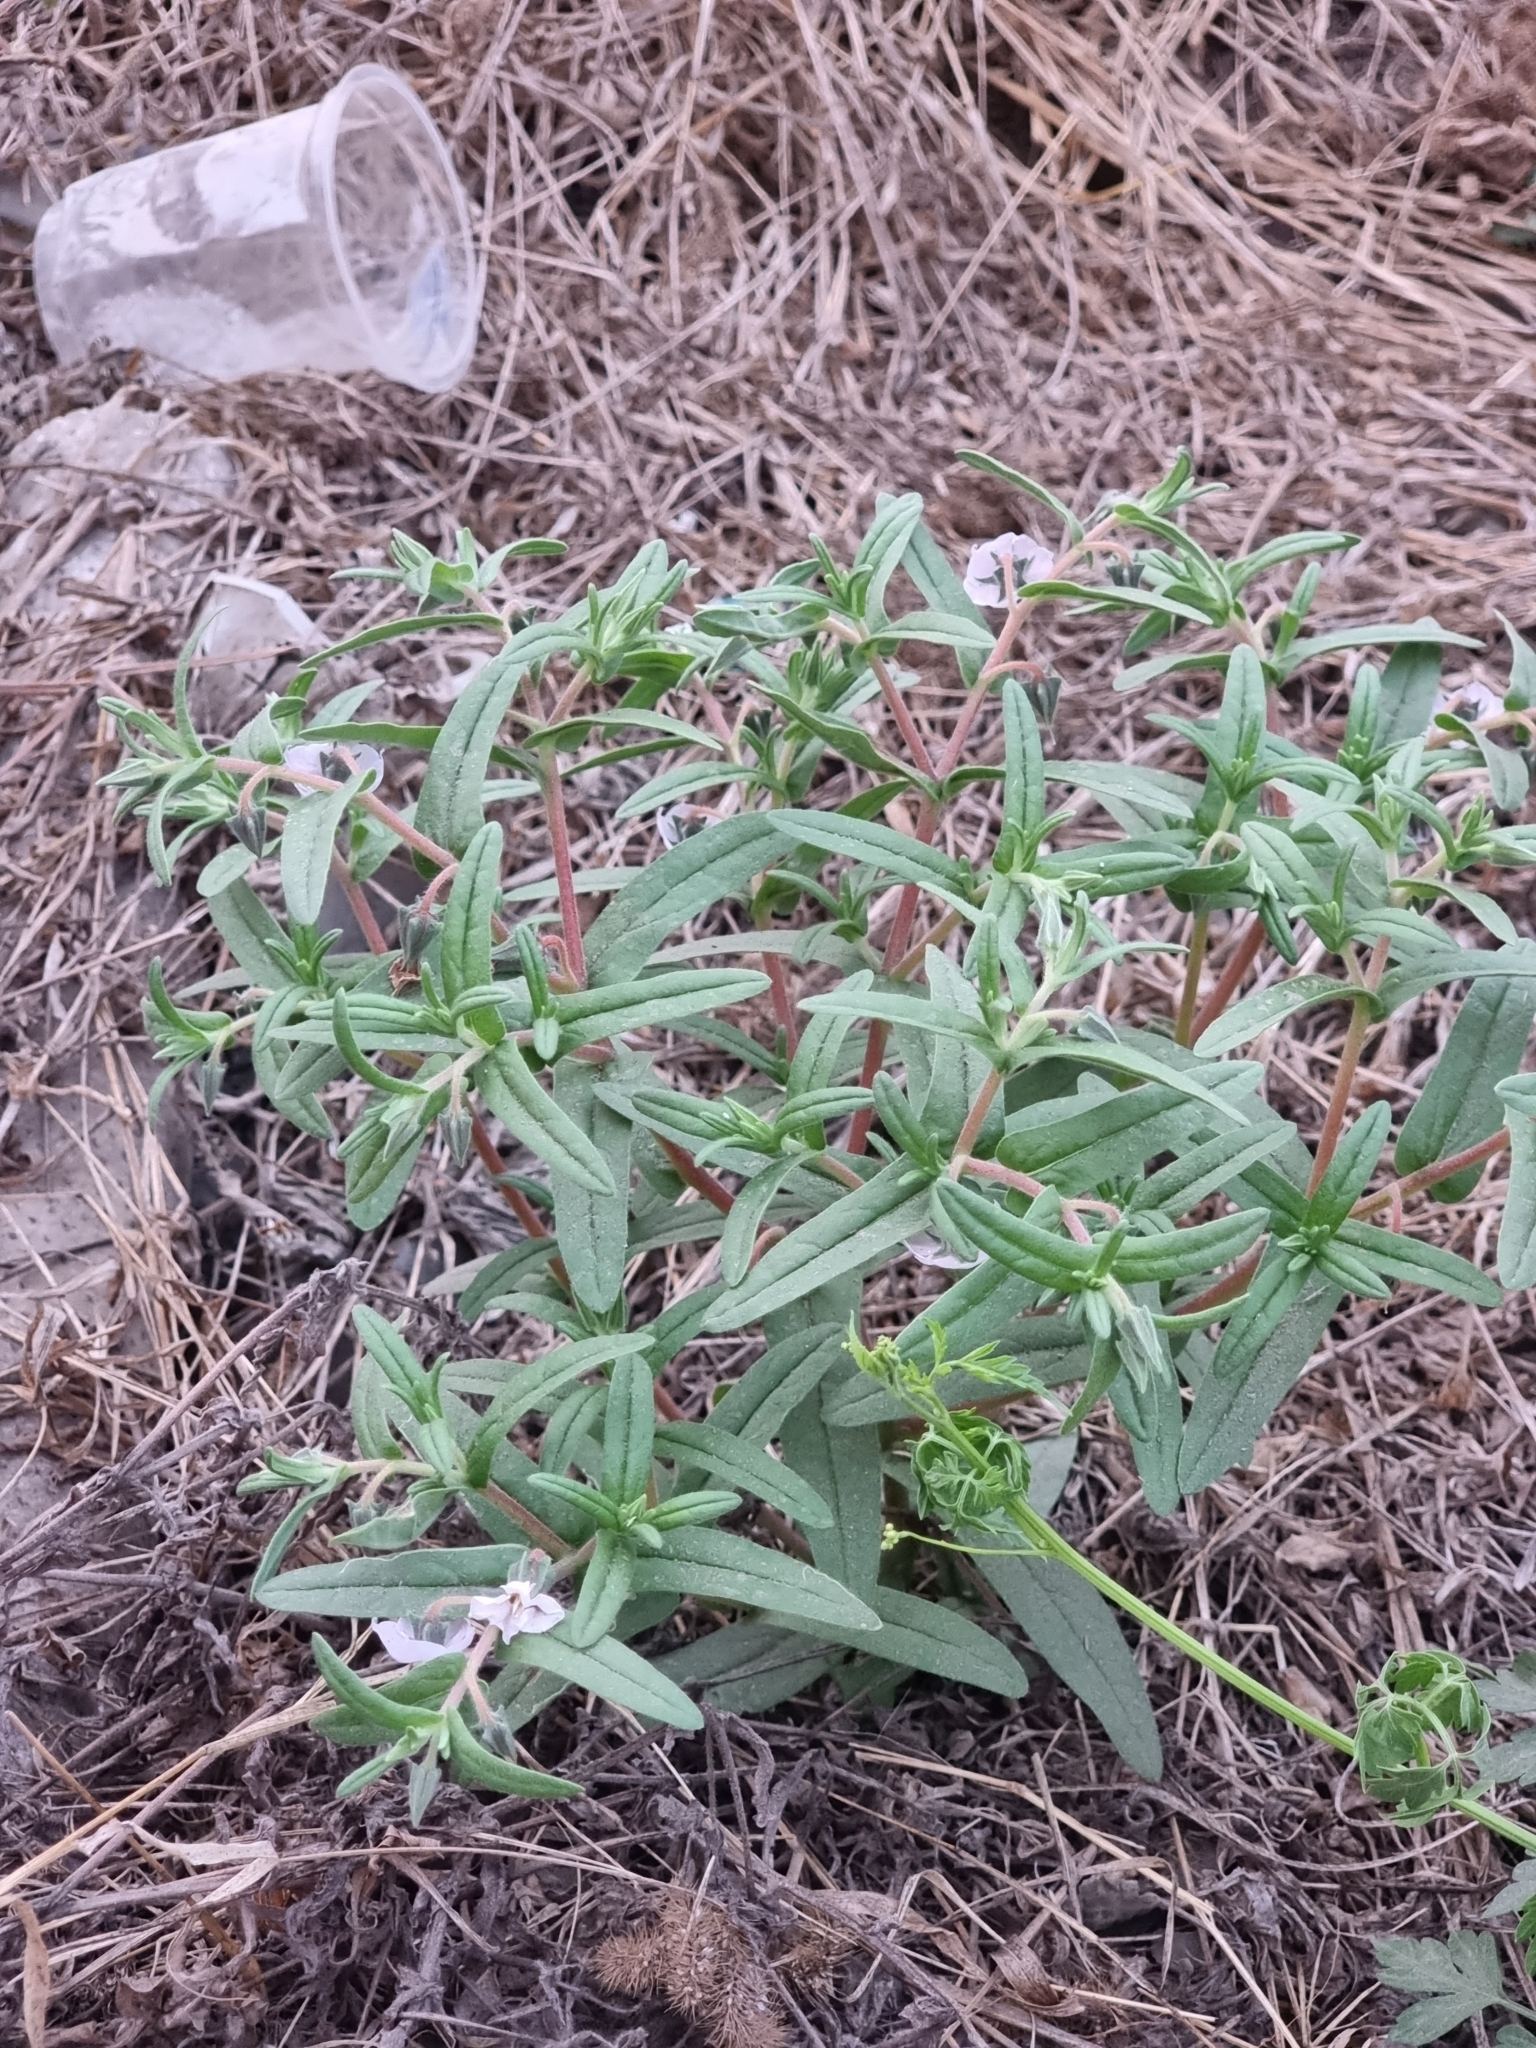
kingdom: Plantae
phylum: Tracheophyta
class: Magnoliopsida
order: Boraginales
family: Boraginaceae
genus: Trichodesma
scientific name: Trichodesma indicum
